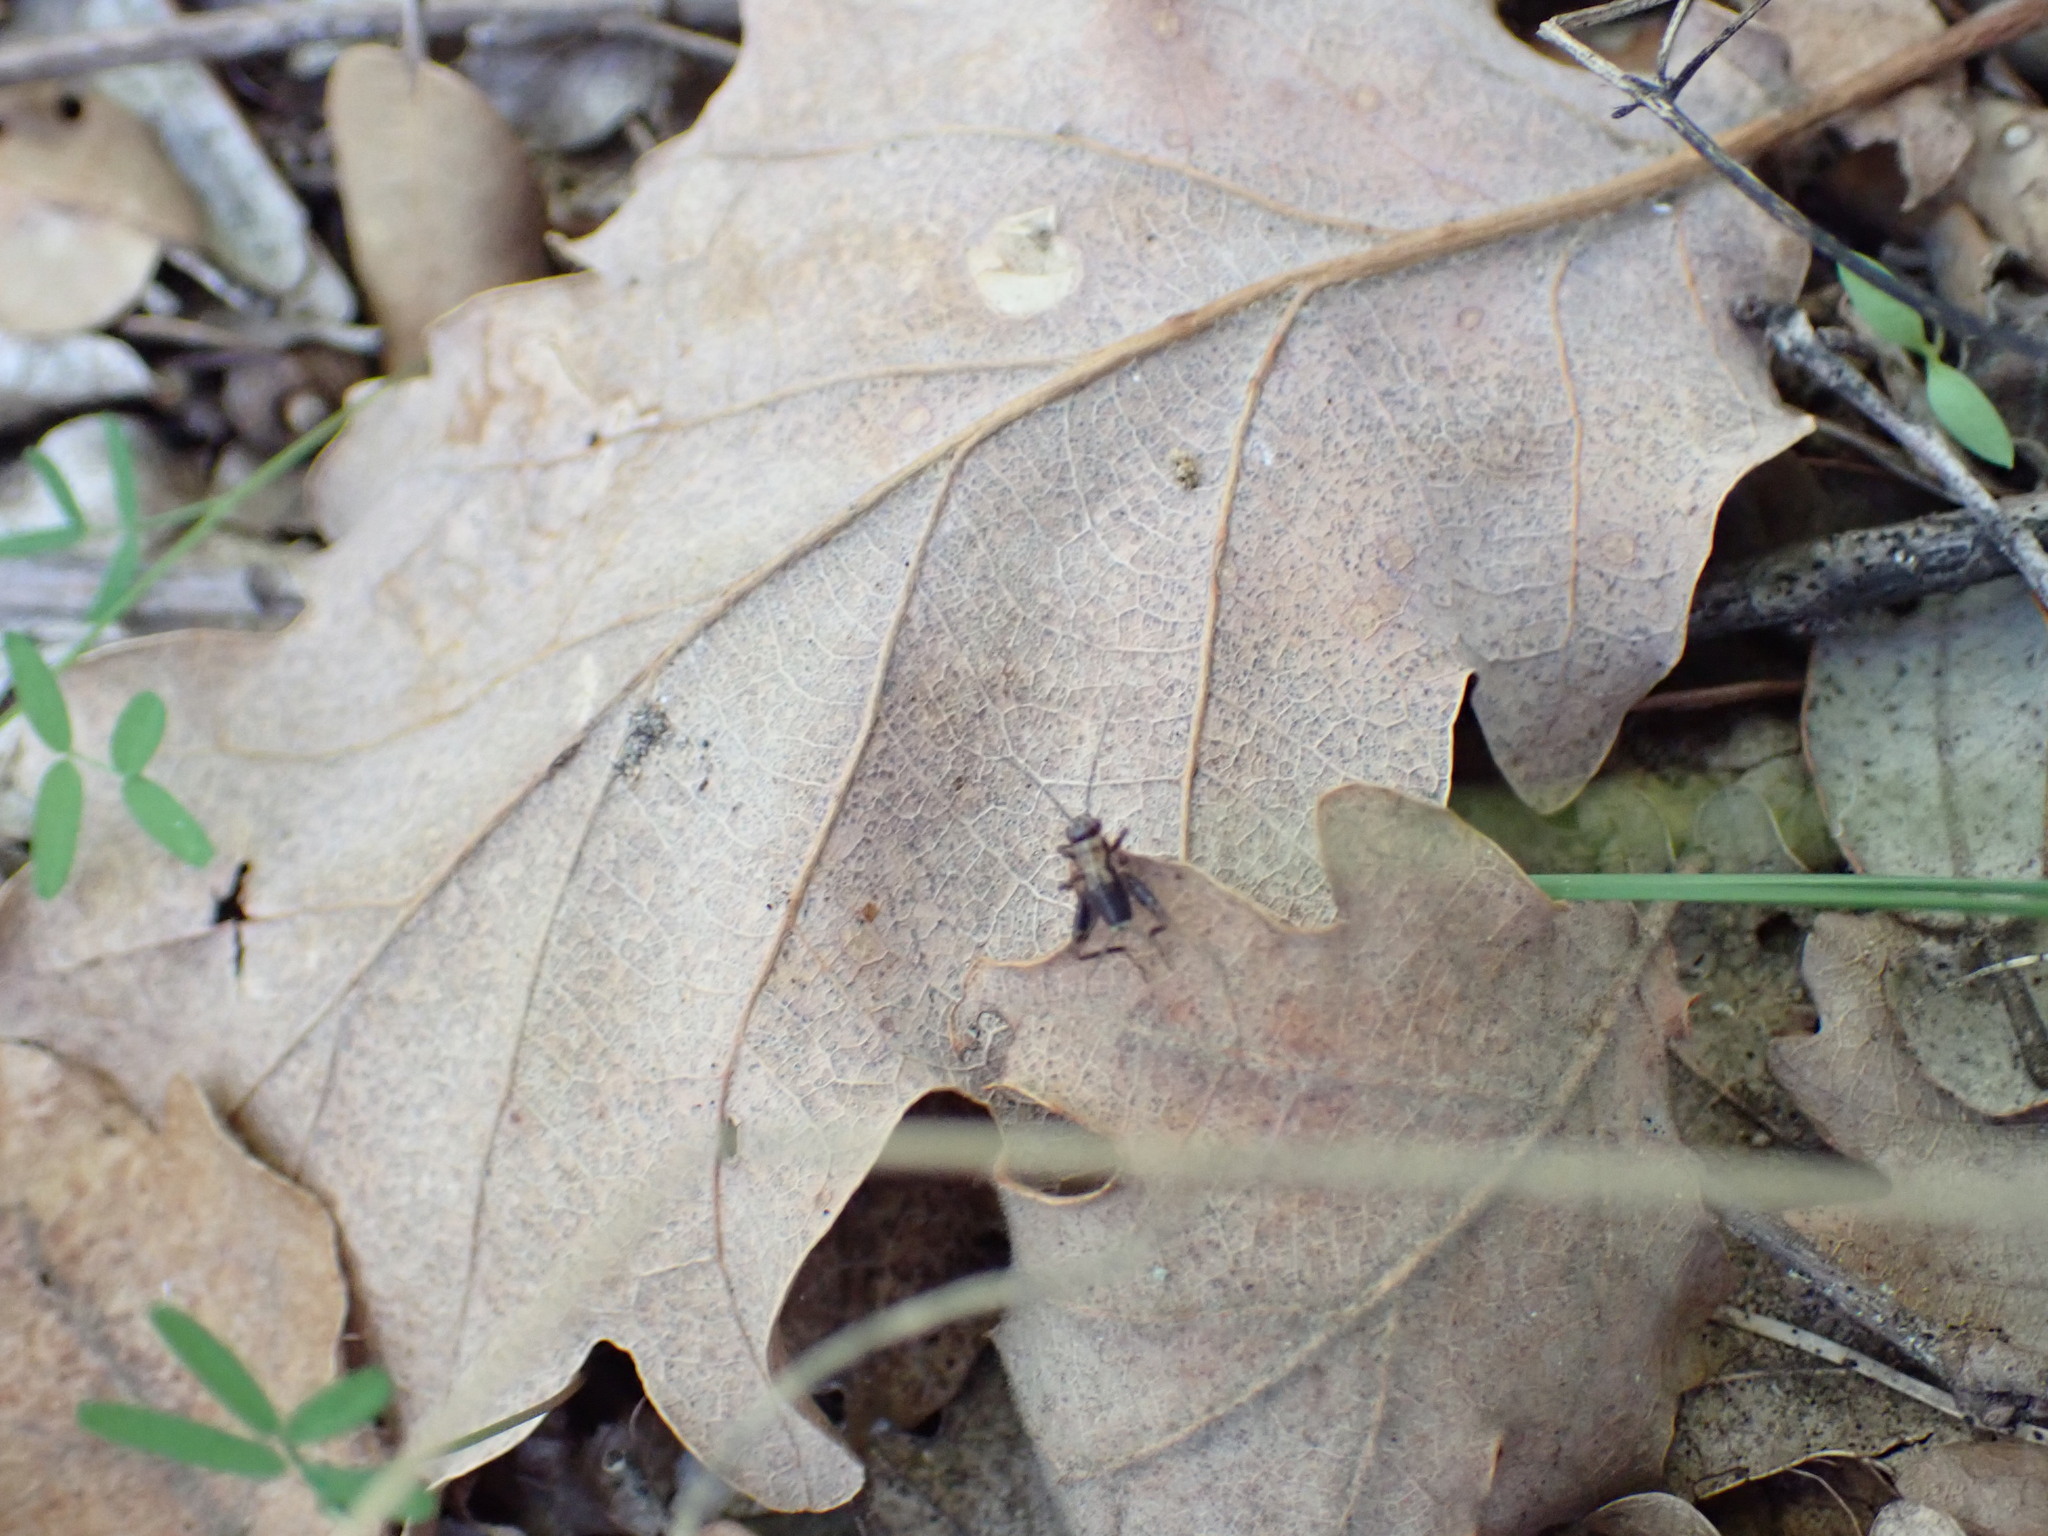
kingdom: Animalia
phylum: Arthropoda
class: Insecta
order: Orthoptera
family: Trigonidiidae
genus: Nemobius
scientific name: Nemobius sylvestris
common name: Wood-cricket
